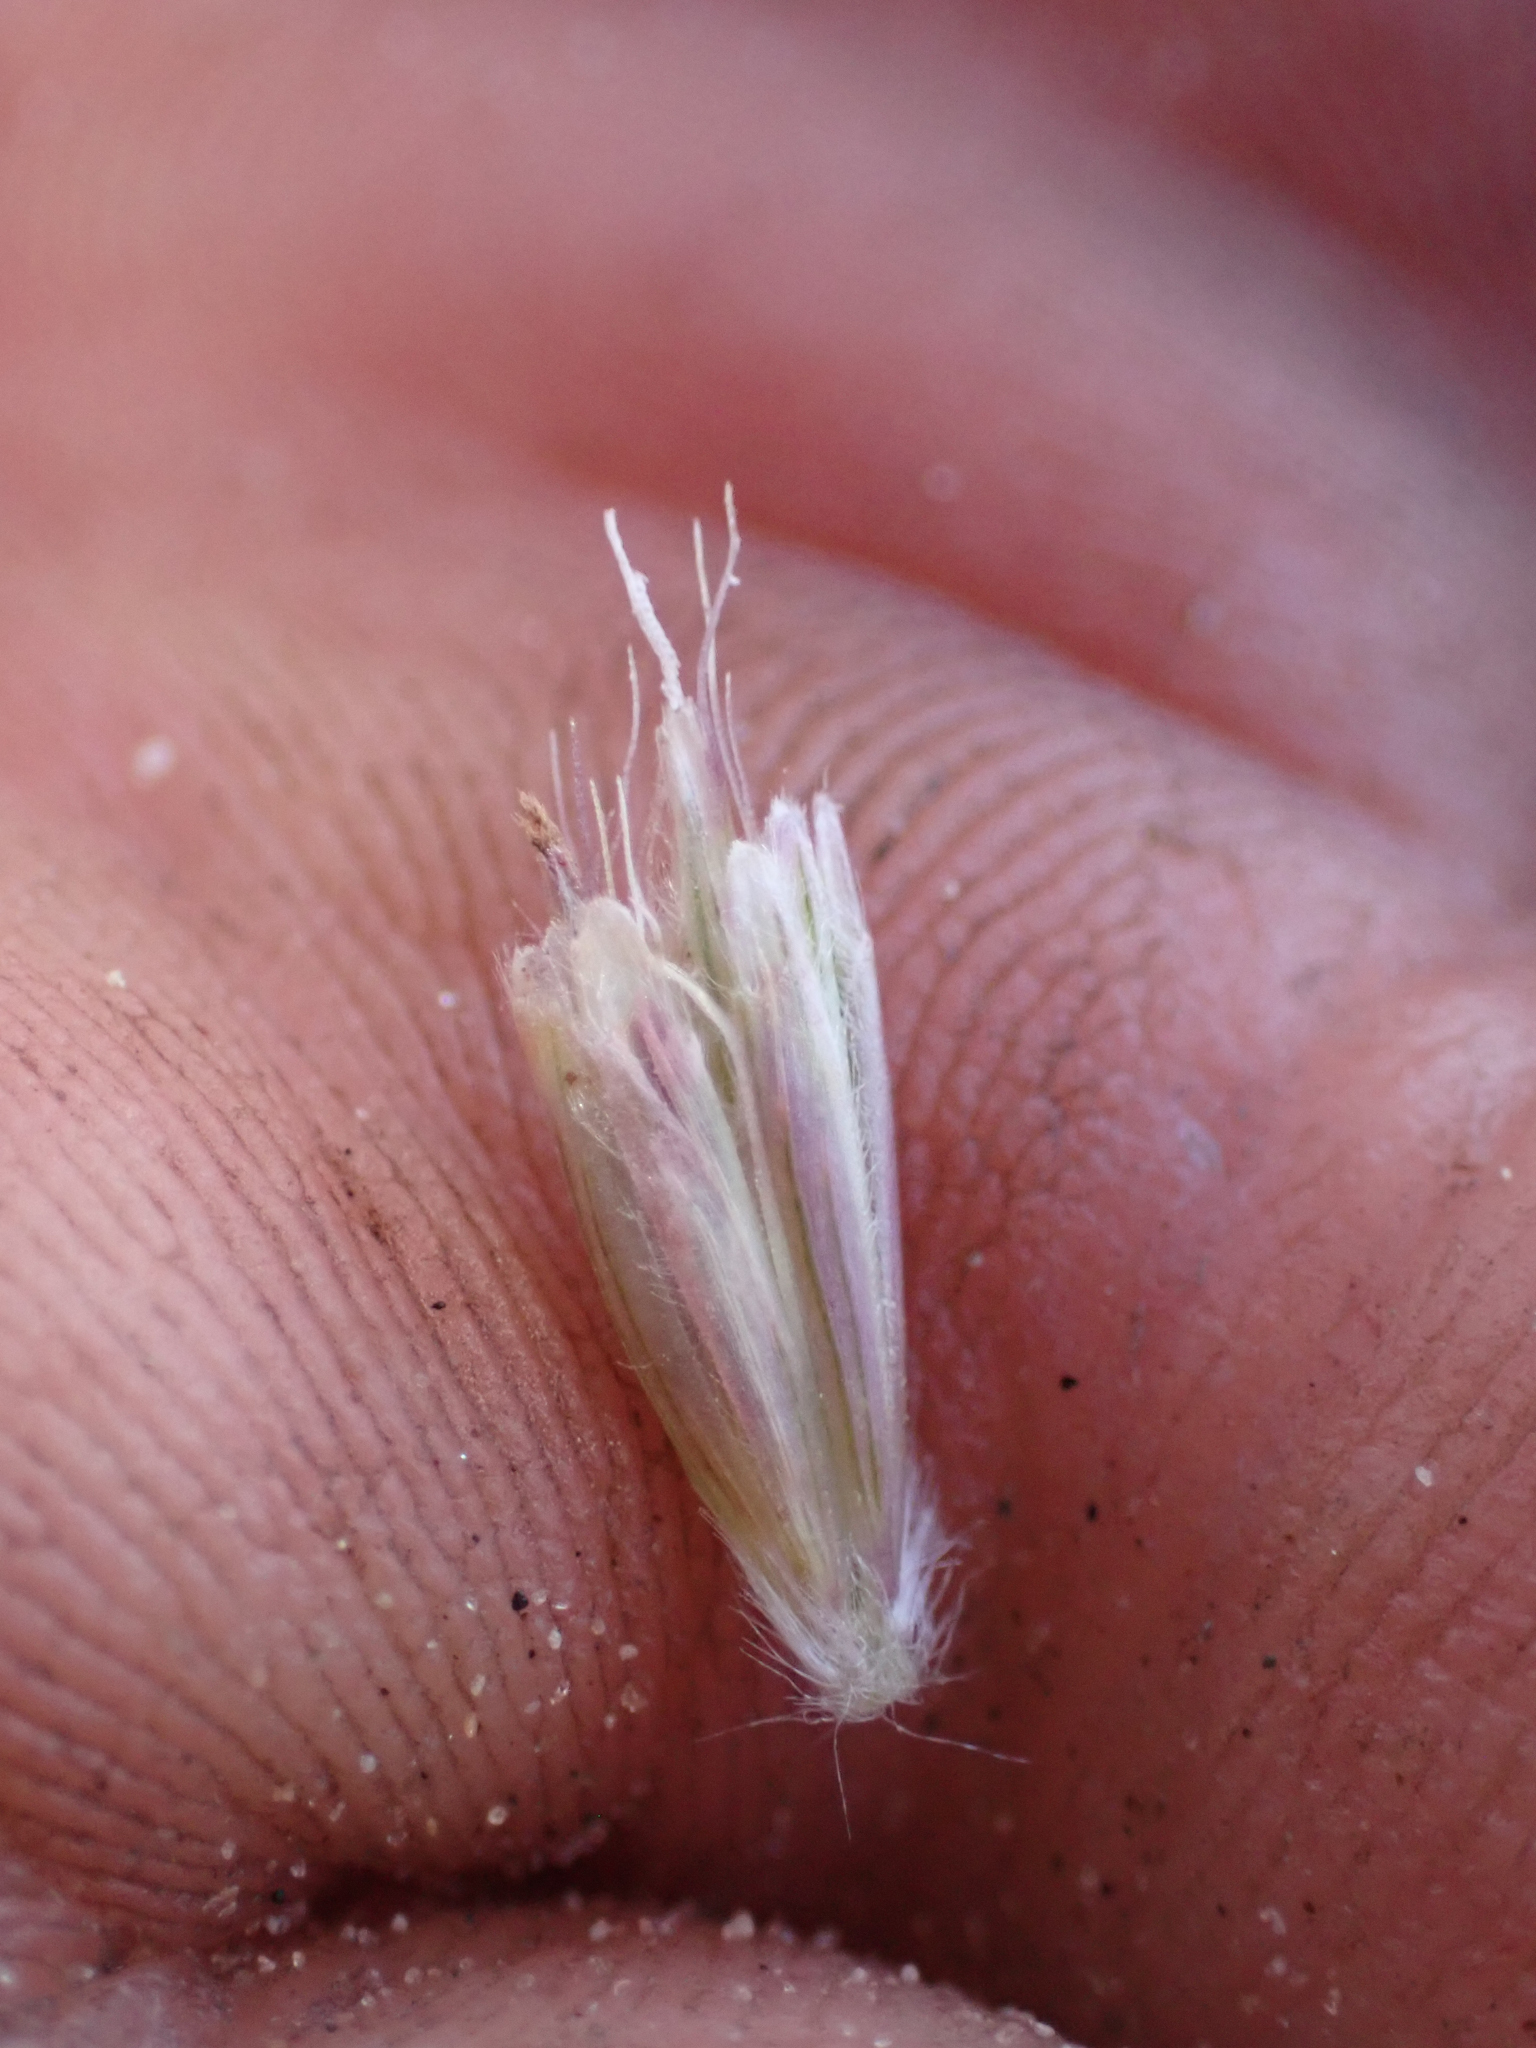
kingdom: Plantae
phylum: Tracheophyta
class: Liliopsida
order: Poales
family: Poaceae
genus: Hilaria
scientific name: Hilaria rigida
